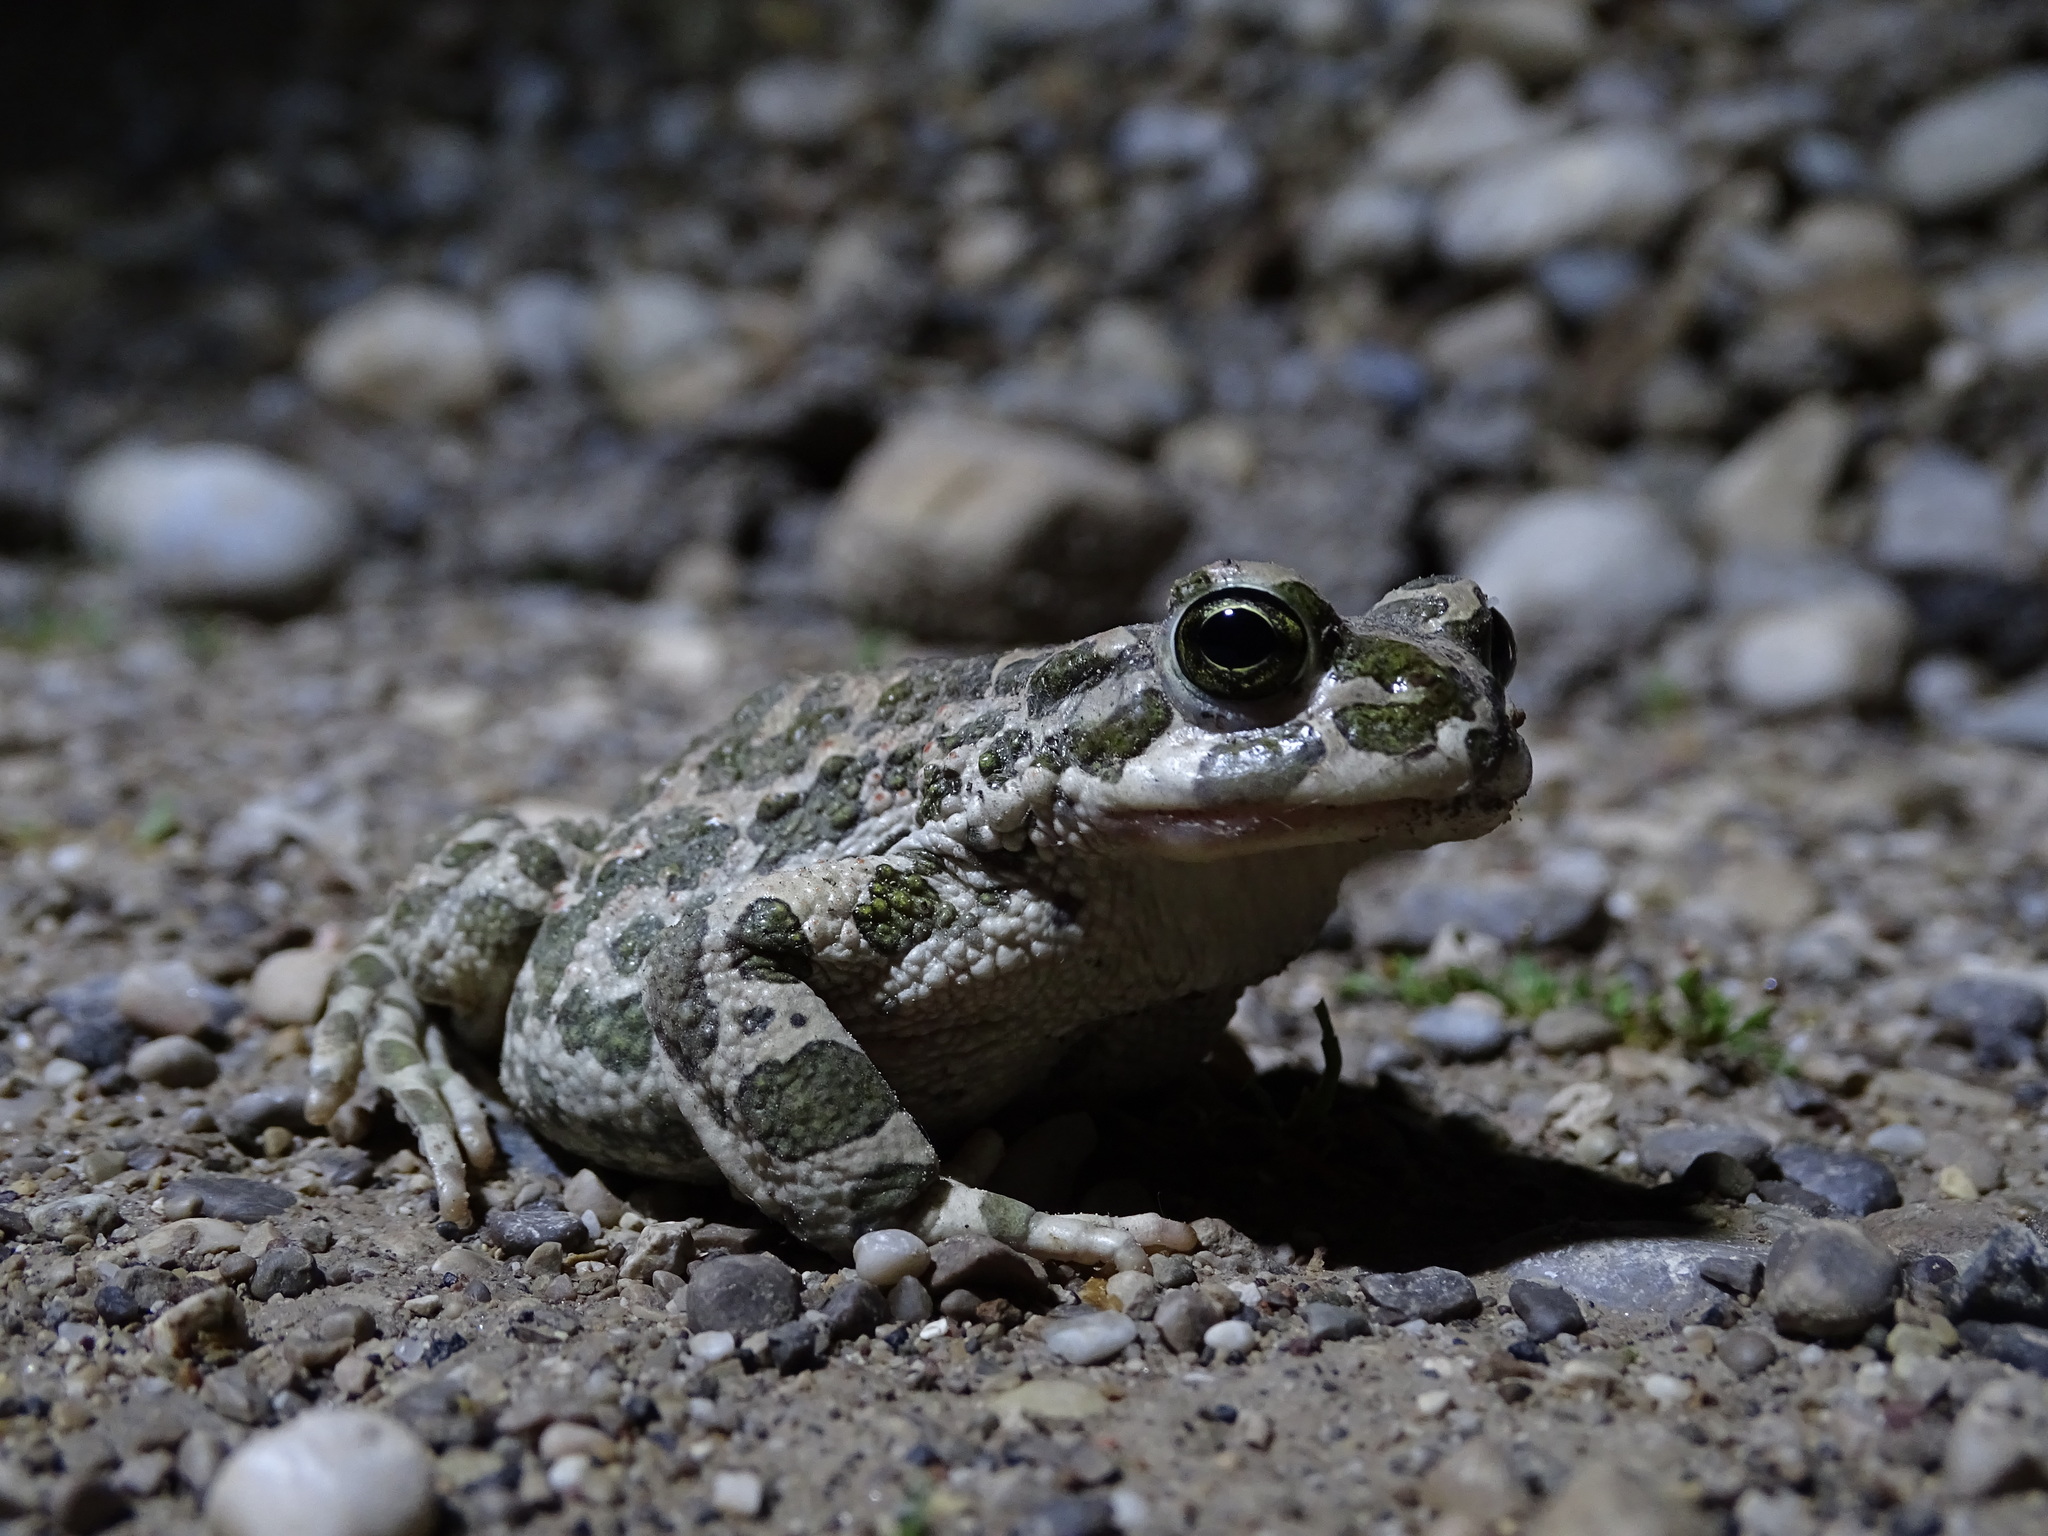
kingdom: Animalia
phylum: Chordata
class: Amphibia
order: Anura
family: Bufonidae
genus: Bufotes
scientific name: Bufotes viridis
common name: European green toad
